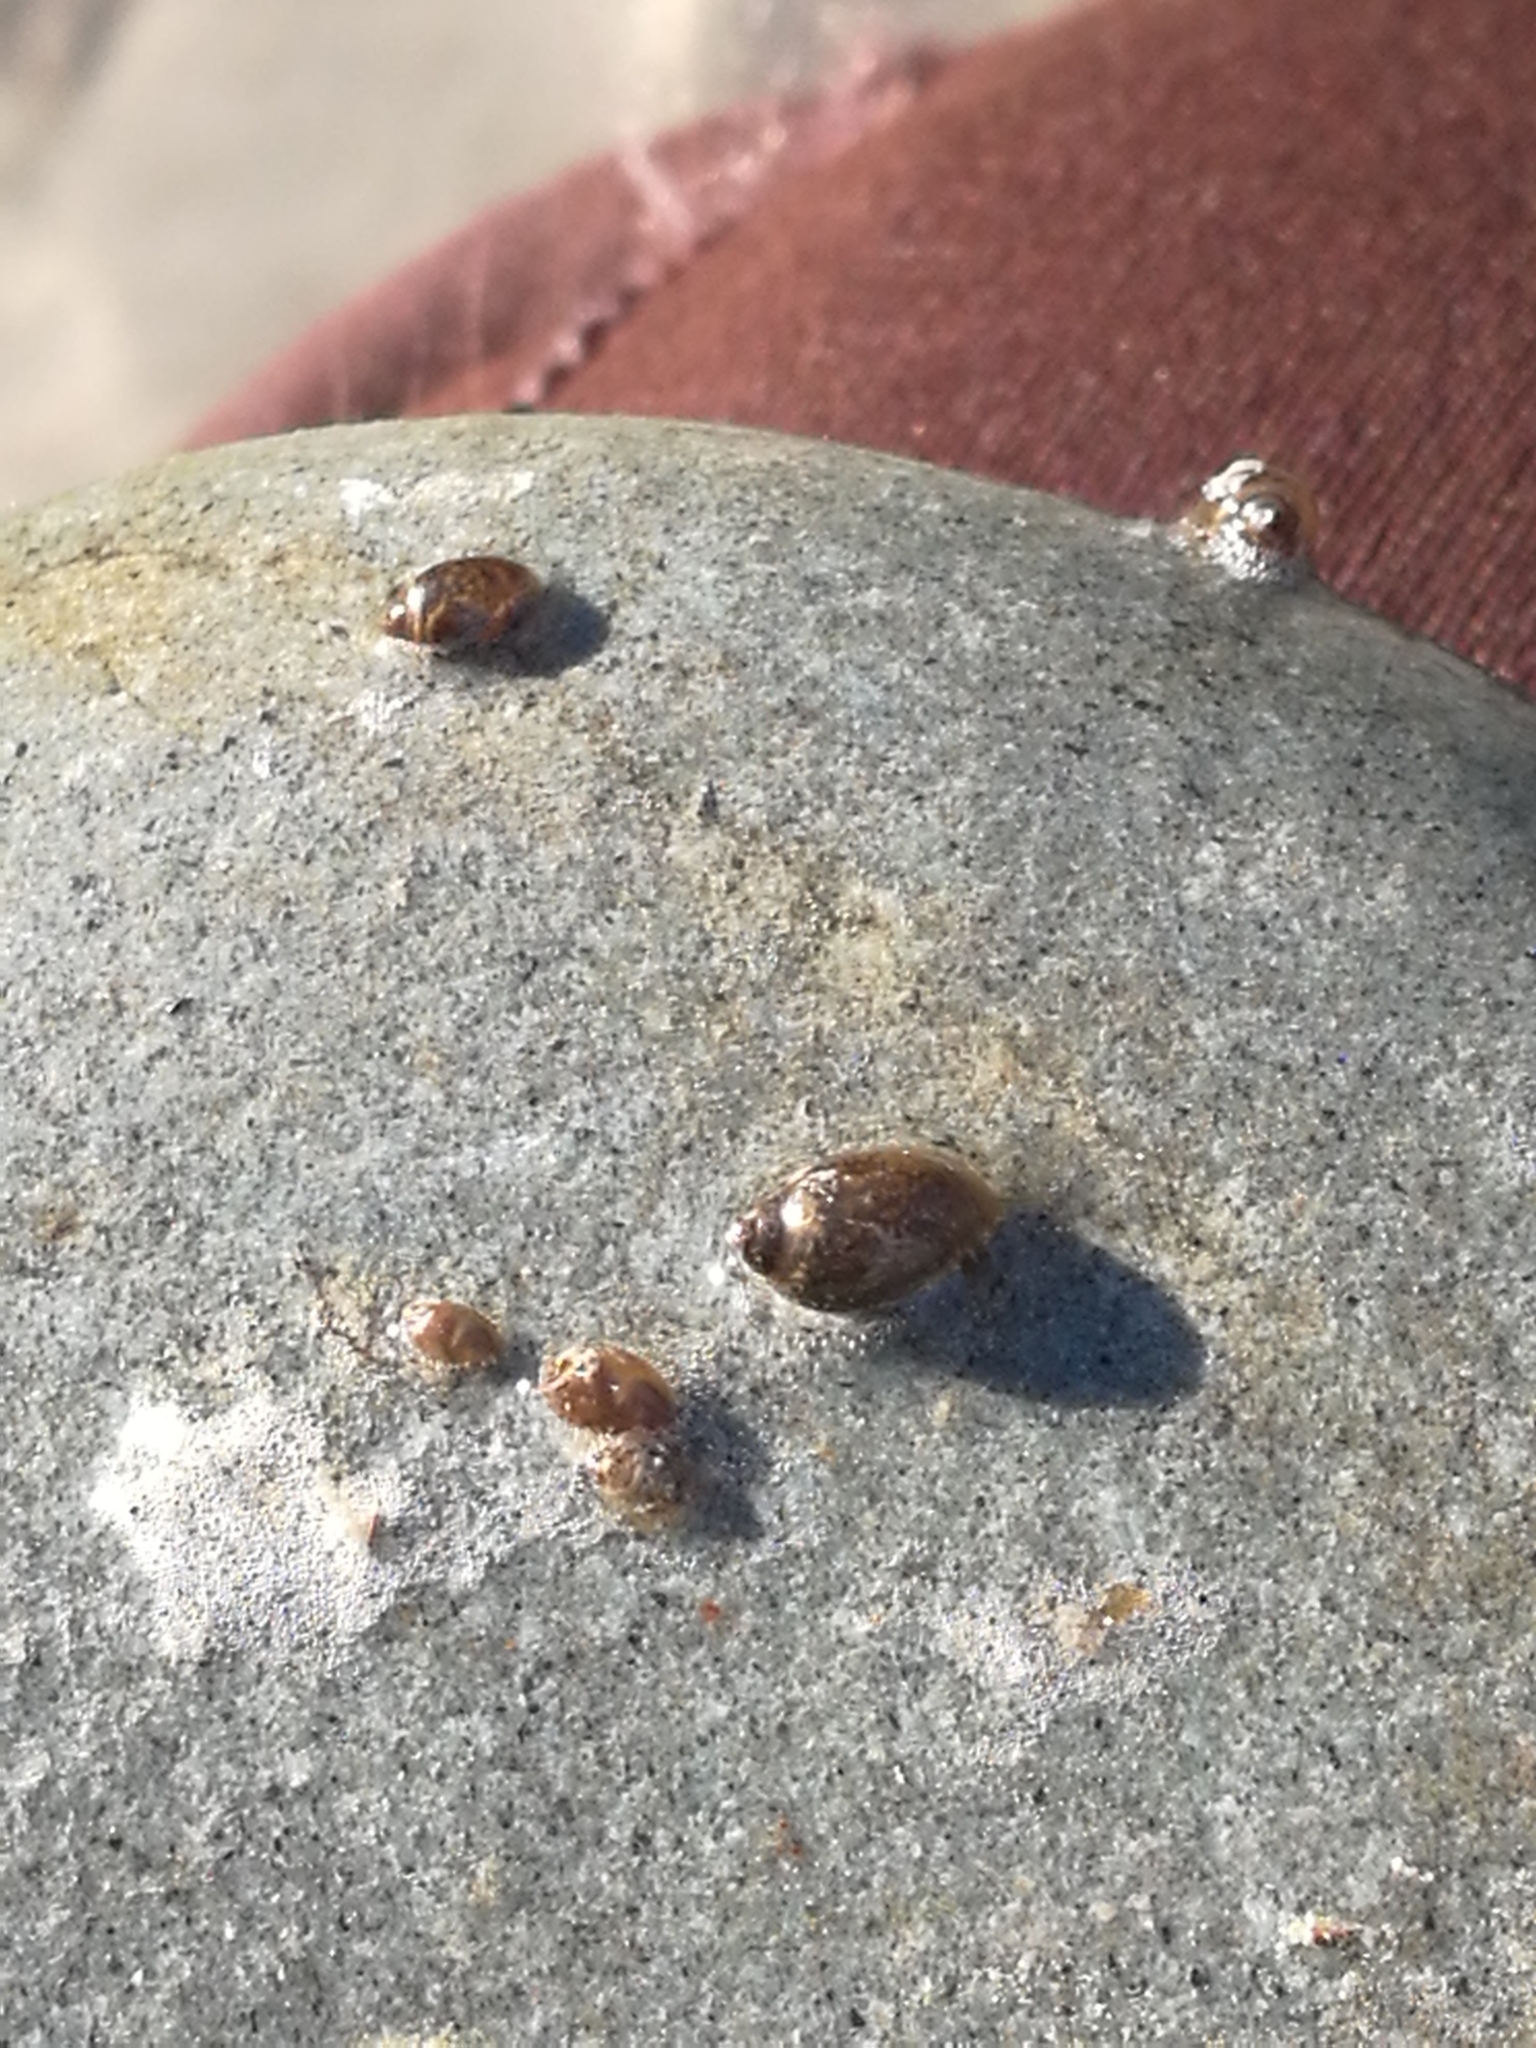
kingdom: Animalia
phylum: Mollusca
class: Gastropoda
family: Physidae
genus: Physella
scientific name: Physella acuta
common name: European physa
